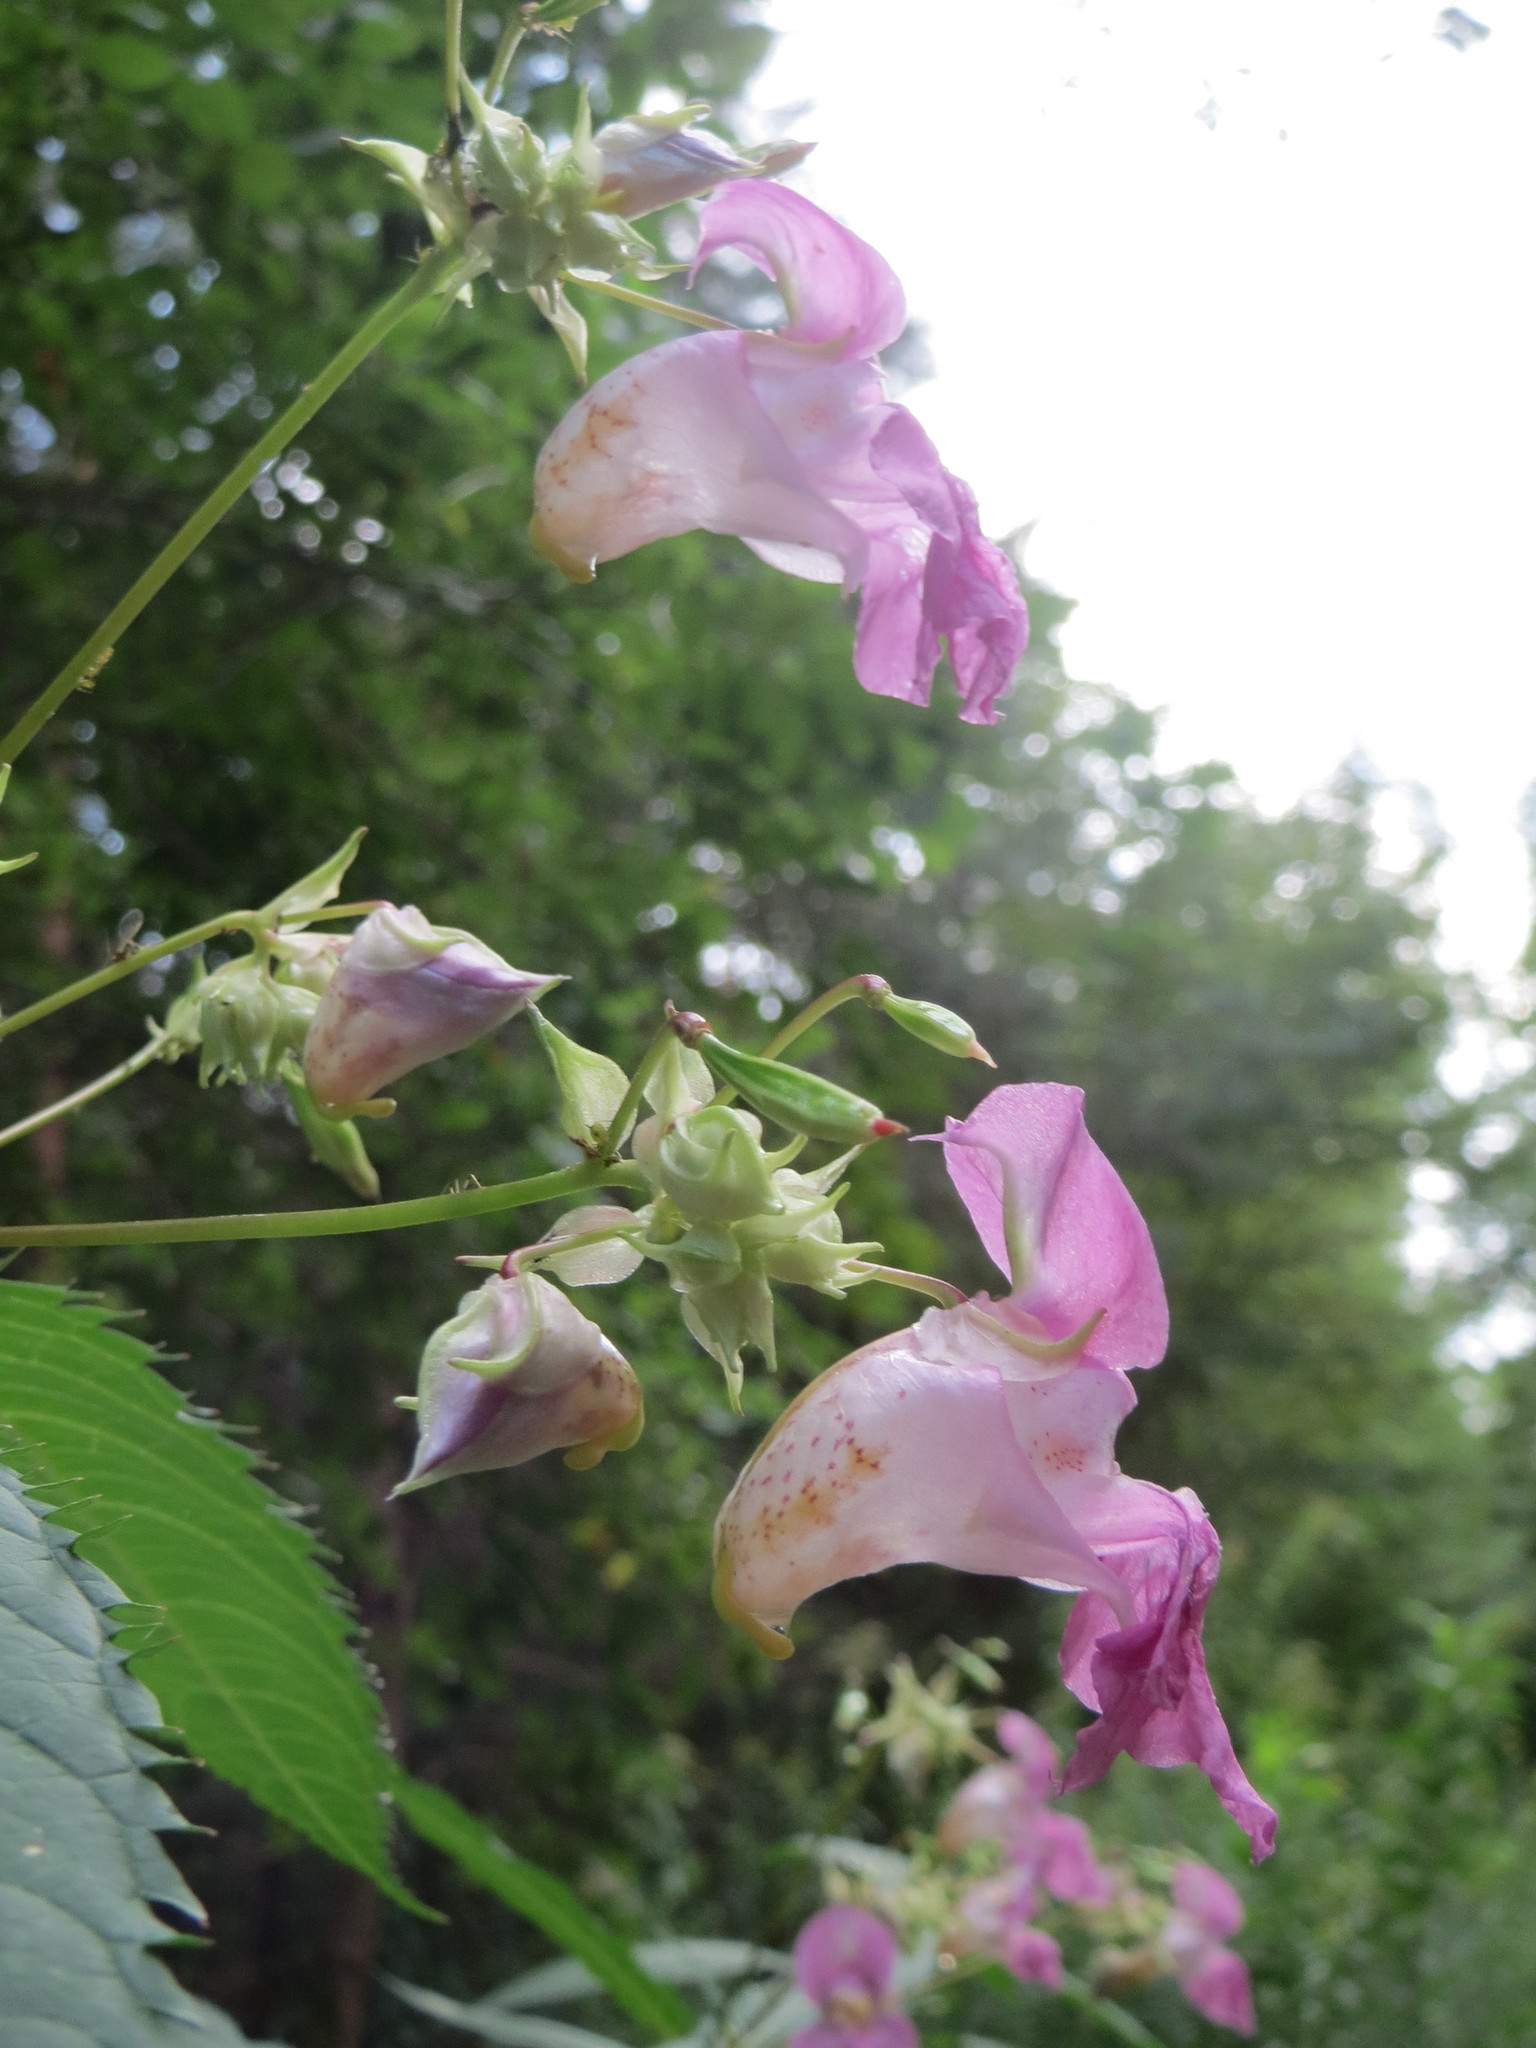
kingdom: Plantae
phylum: Tracheophyta
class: Magnoliopsida
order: Ericales
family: Balsaminaceae
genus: Impatiens
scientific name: Impatiens glandulifera
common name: Himalayan balsam
